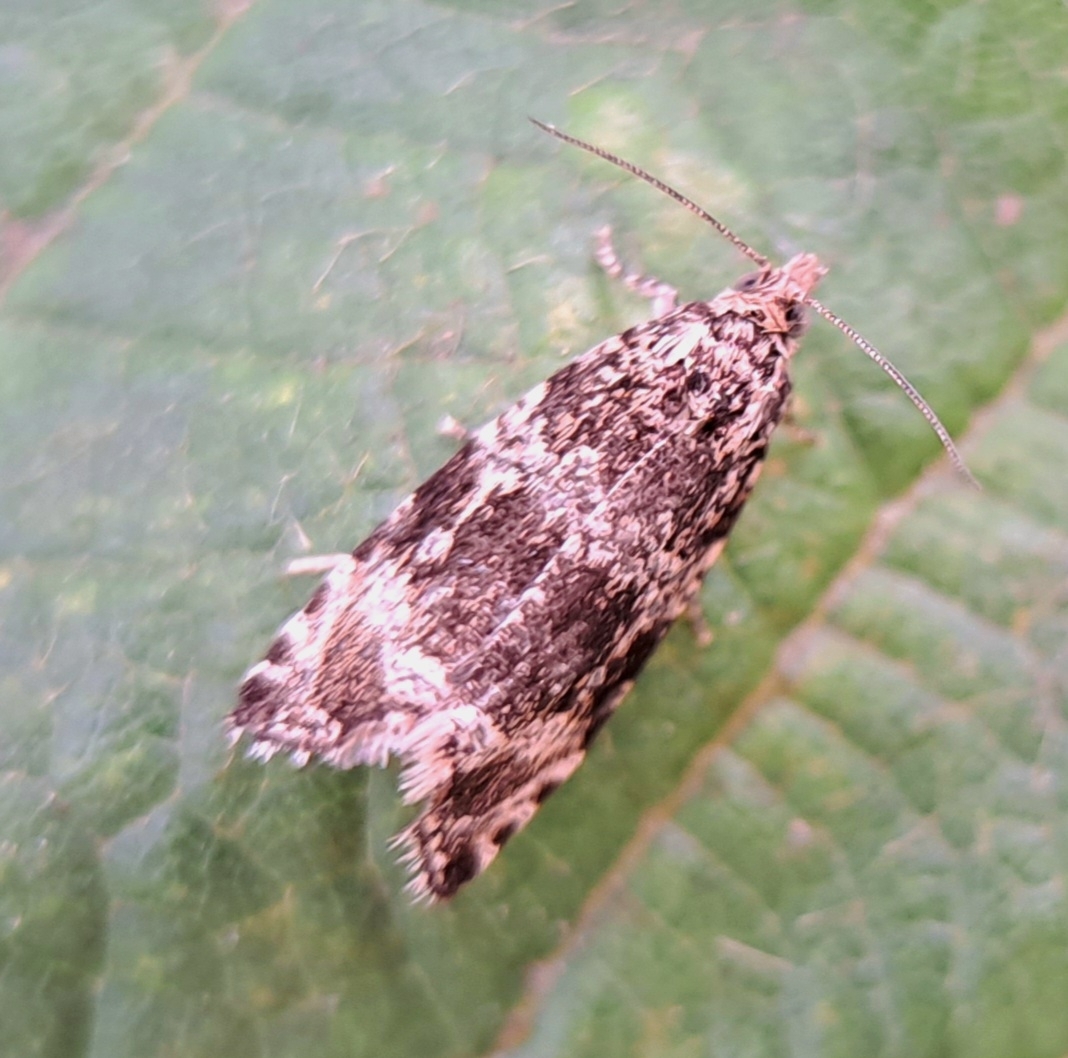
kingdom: Animalia
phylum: Arthropoda
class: Insecta
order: Lepidoptera
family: Tortricidae
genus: Syricoris
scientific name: Syricoris lacunana
